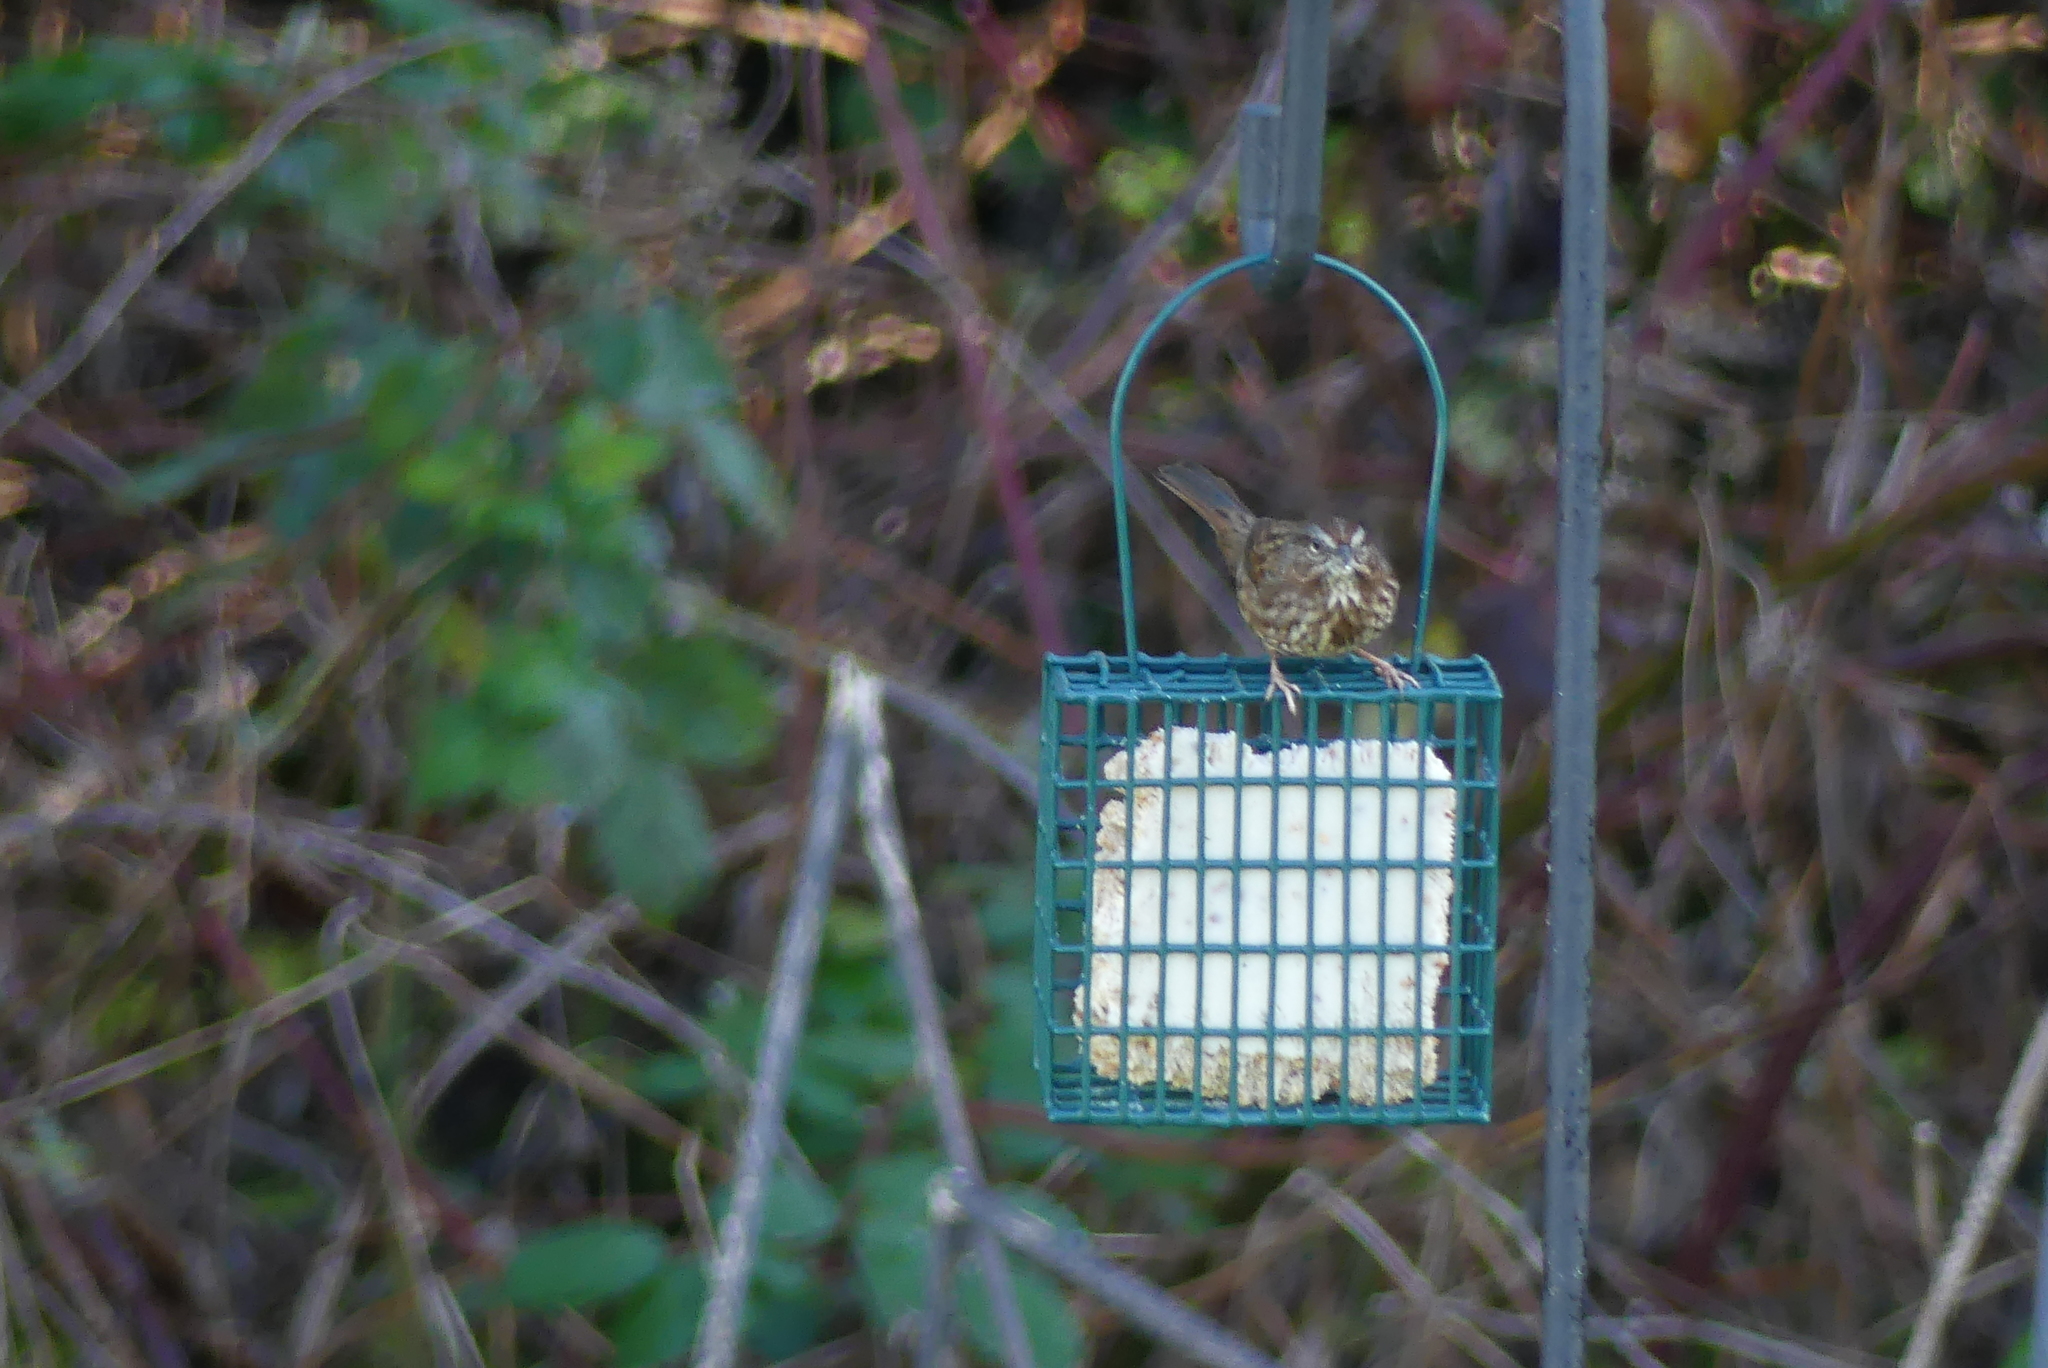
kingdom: Animalia
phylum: Chordata
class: Aves
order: Passeriformes
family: Passerellidae
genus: Melospiza
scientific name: Melospiza melodia
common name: Song sparrow
